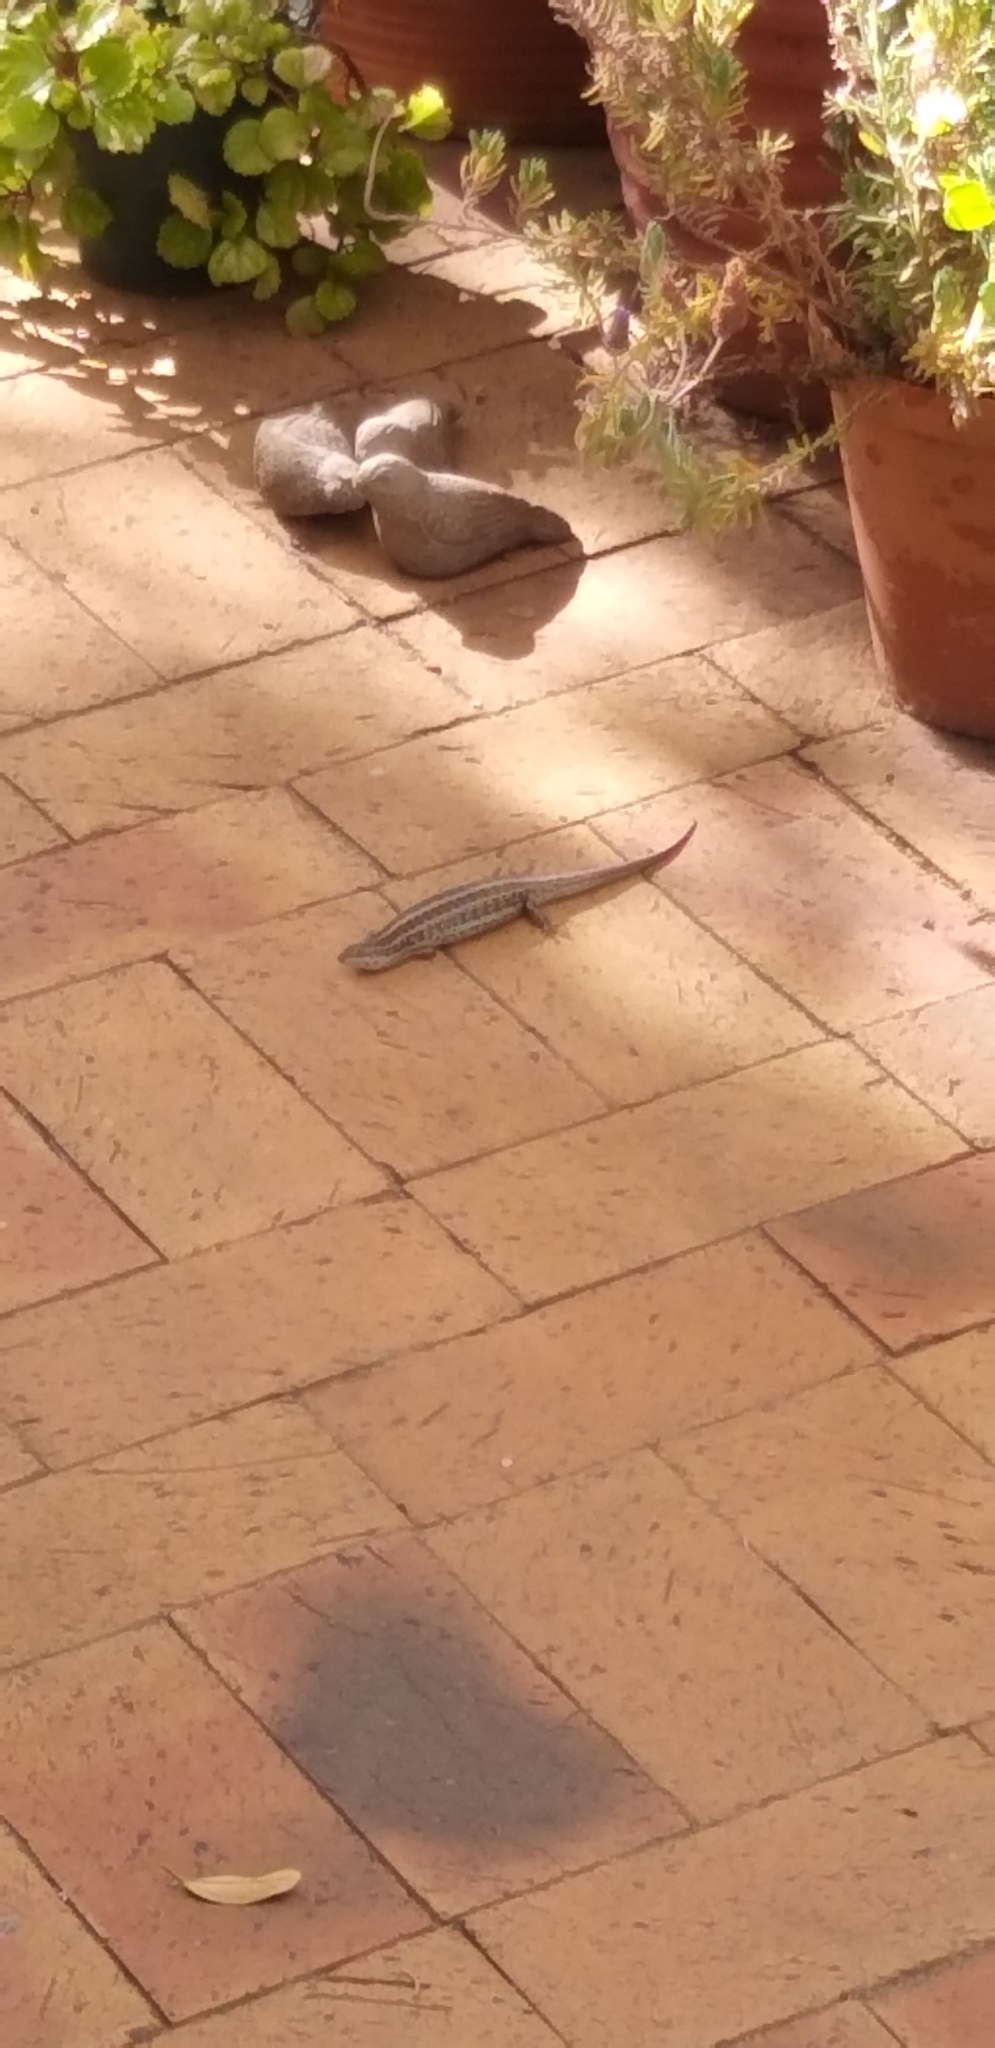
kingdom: Animalia
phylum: Chordata
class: Squamata
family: Scincidae
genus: Trachylepis
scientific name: Trachylepis capensis
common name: Cape skink
